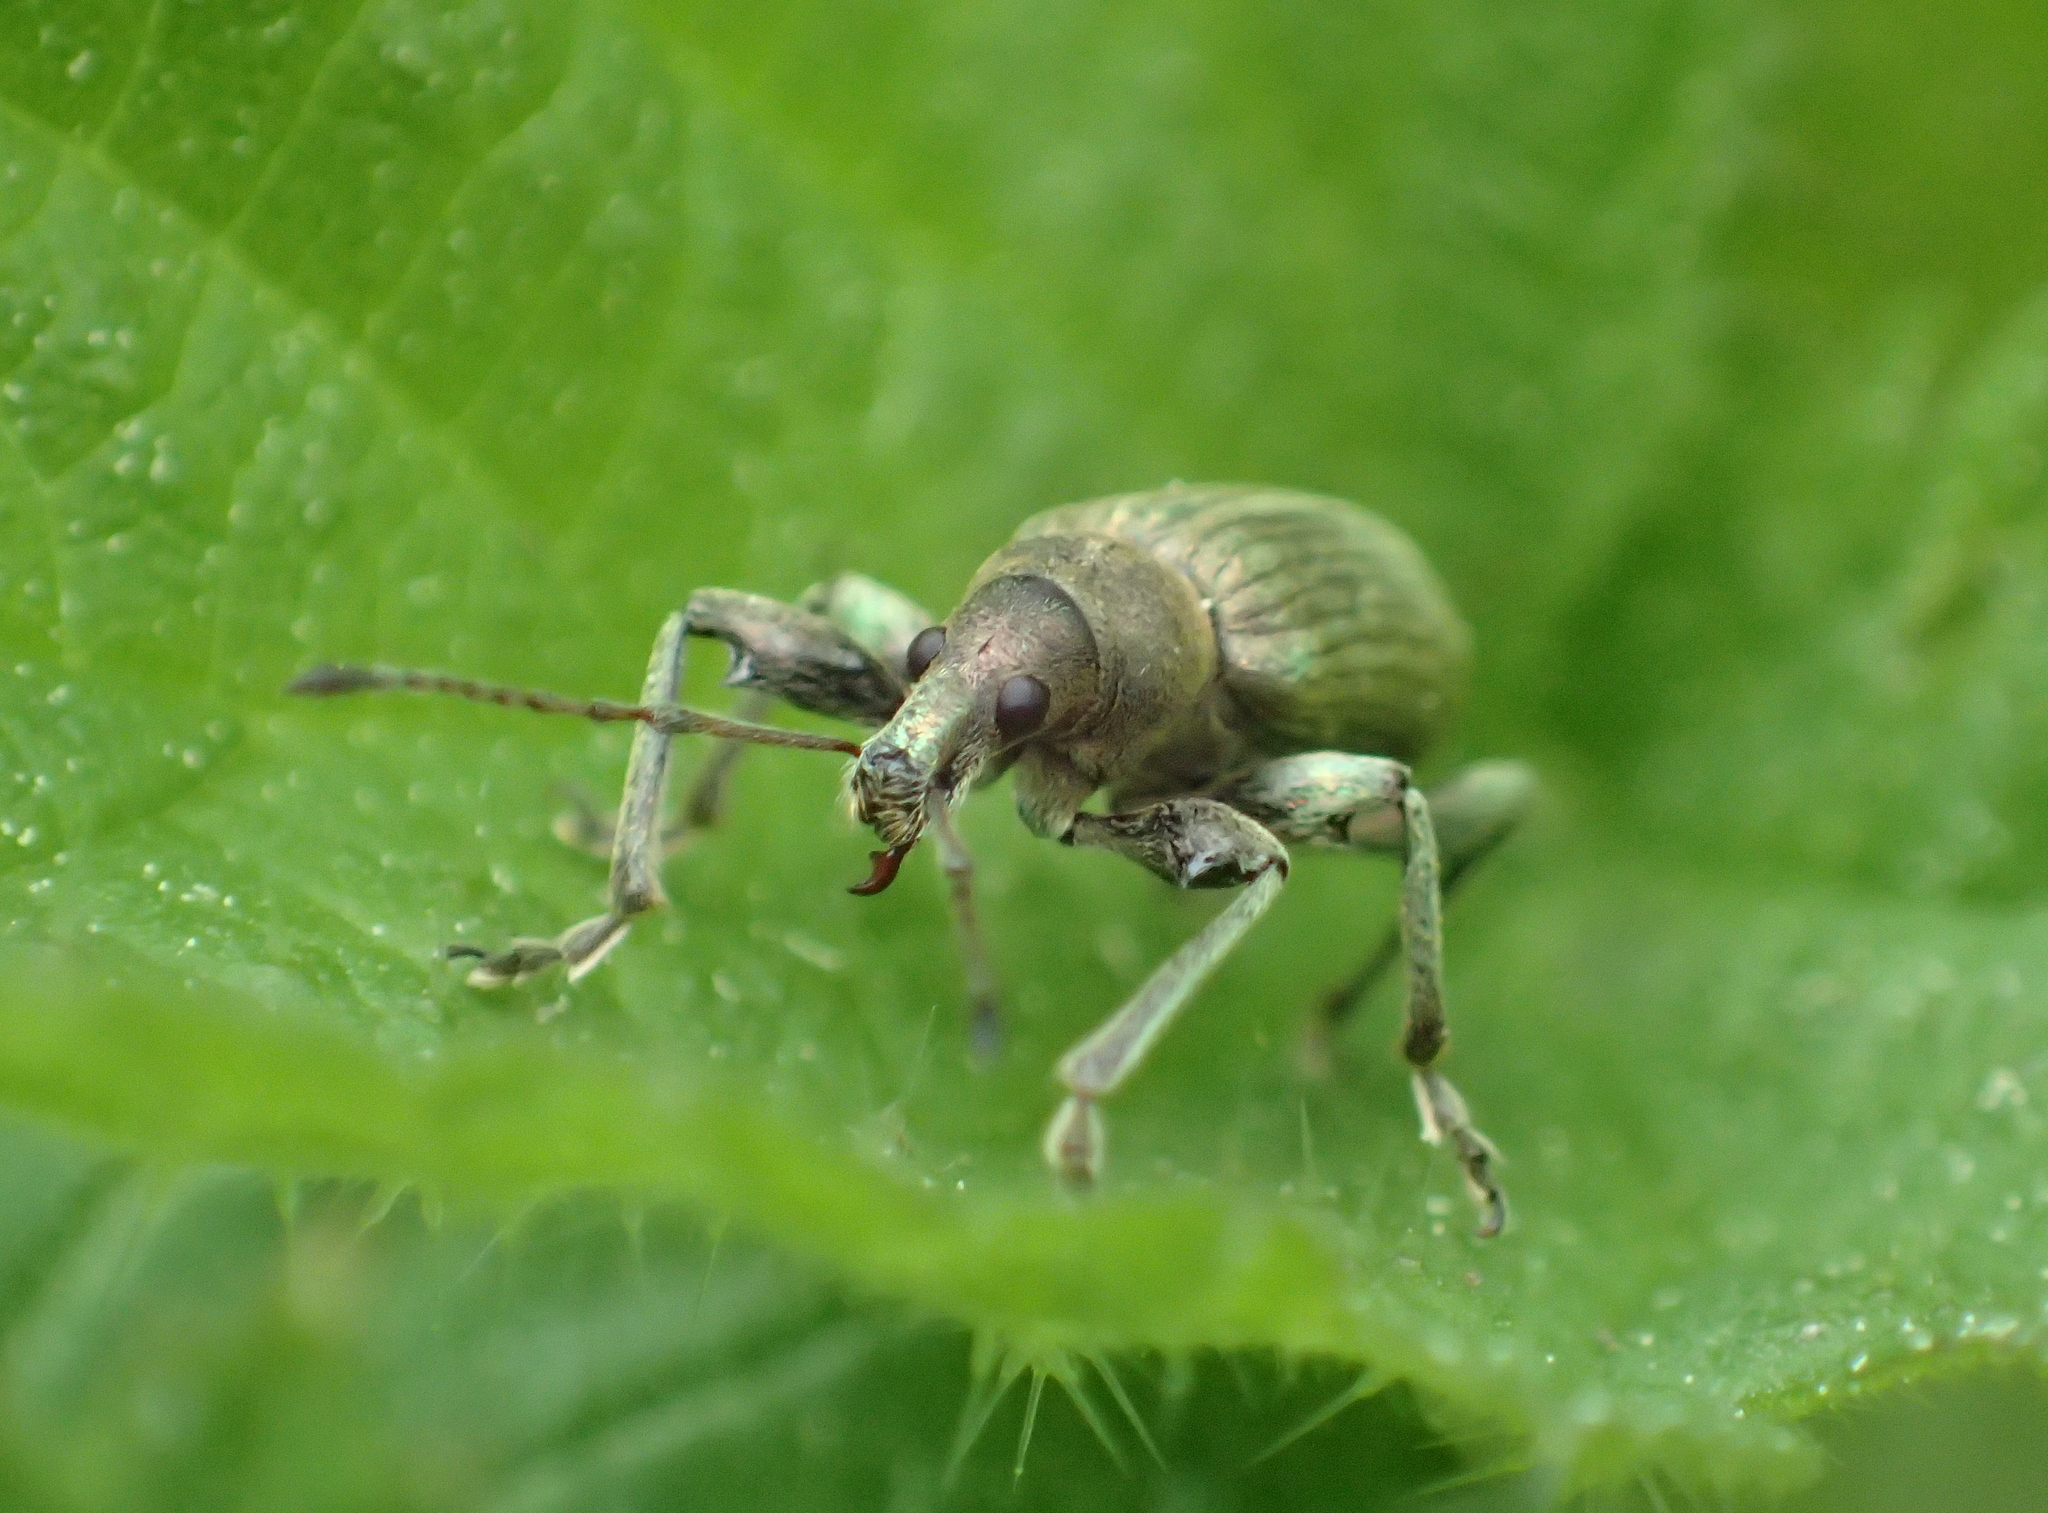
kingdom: Animalia
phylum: Arthropoda
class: Insecta
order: Coleoptera
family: Curculionidae
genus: Phyllobius
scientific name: Phyllobius pomaceus
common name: Green nettle weevil
